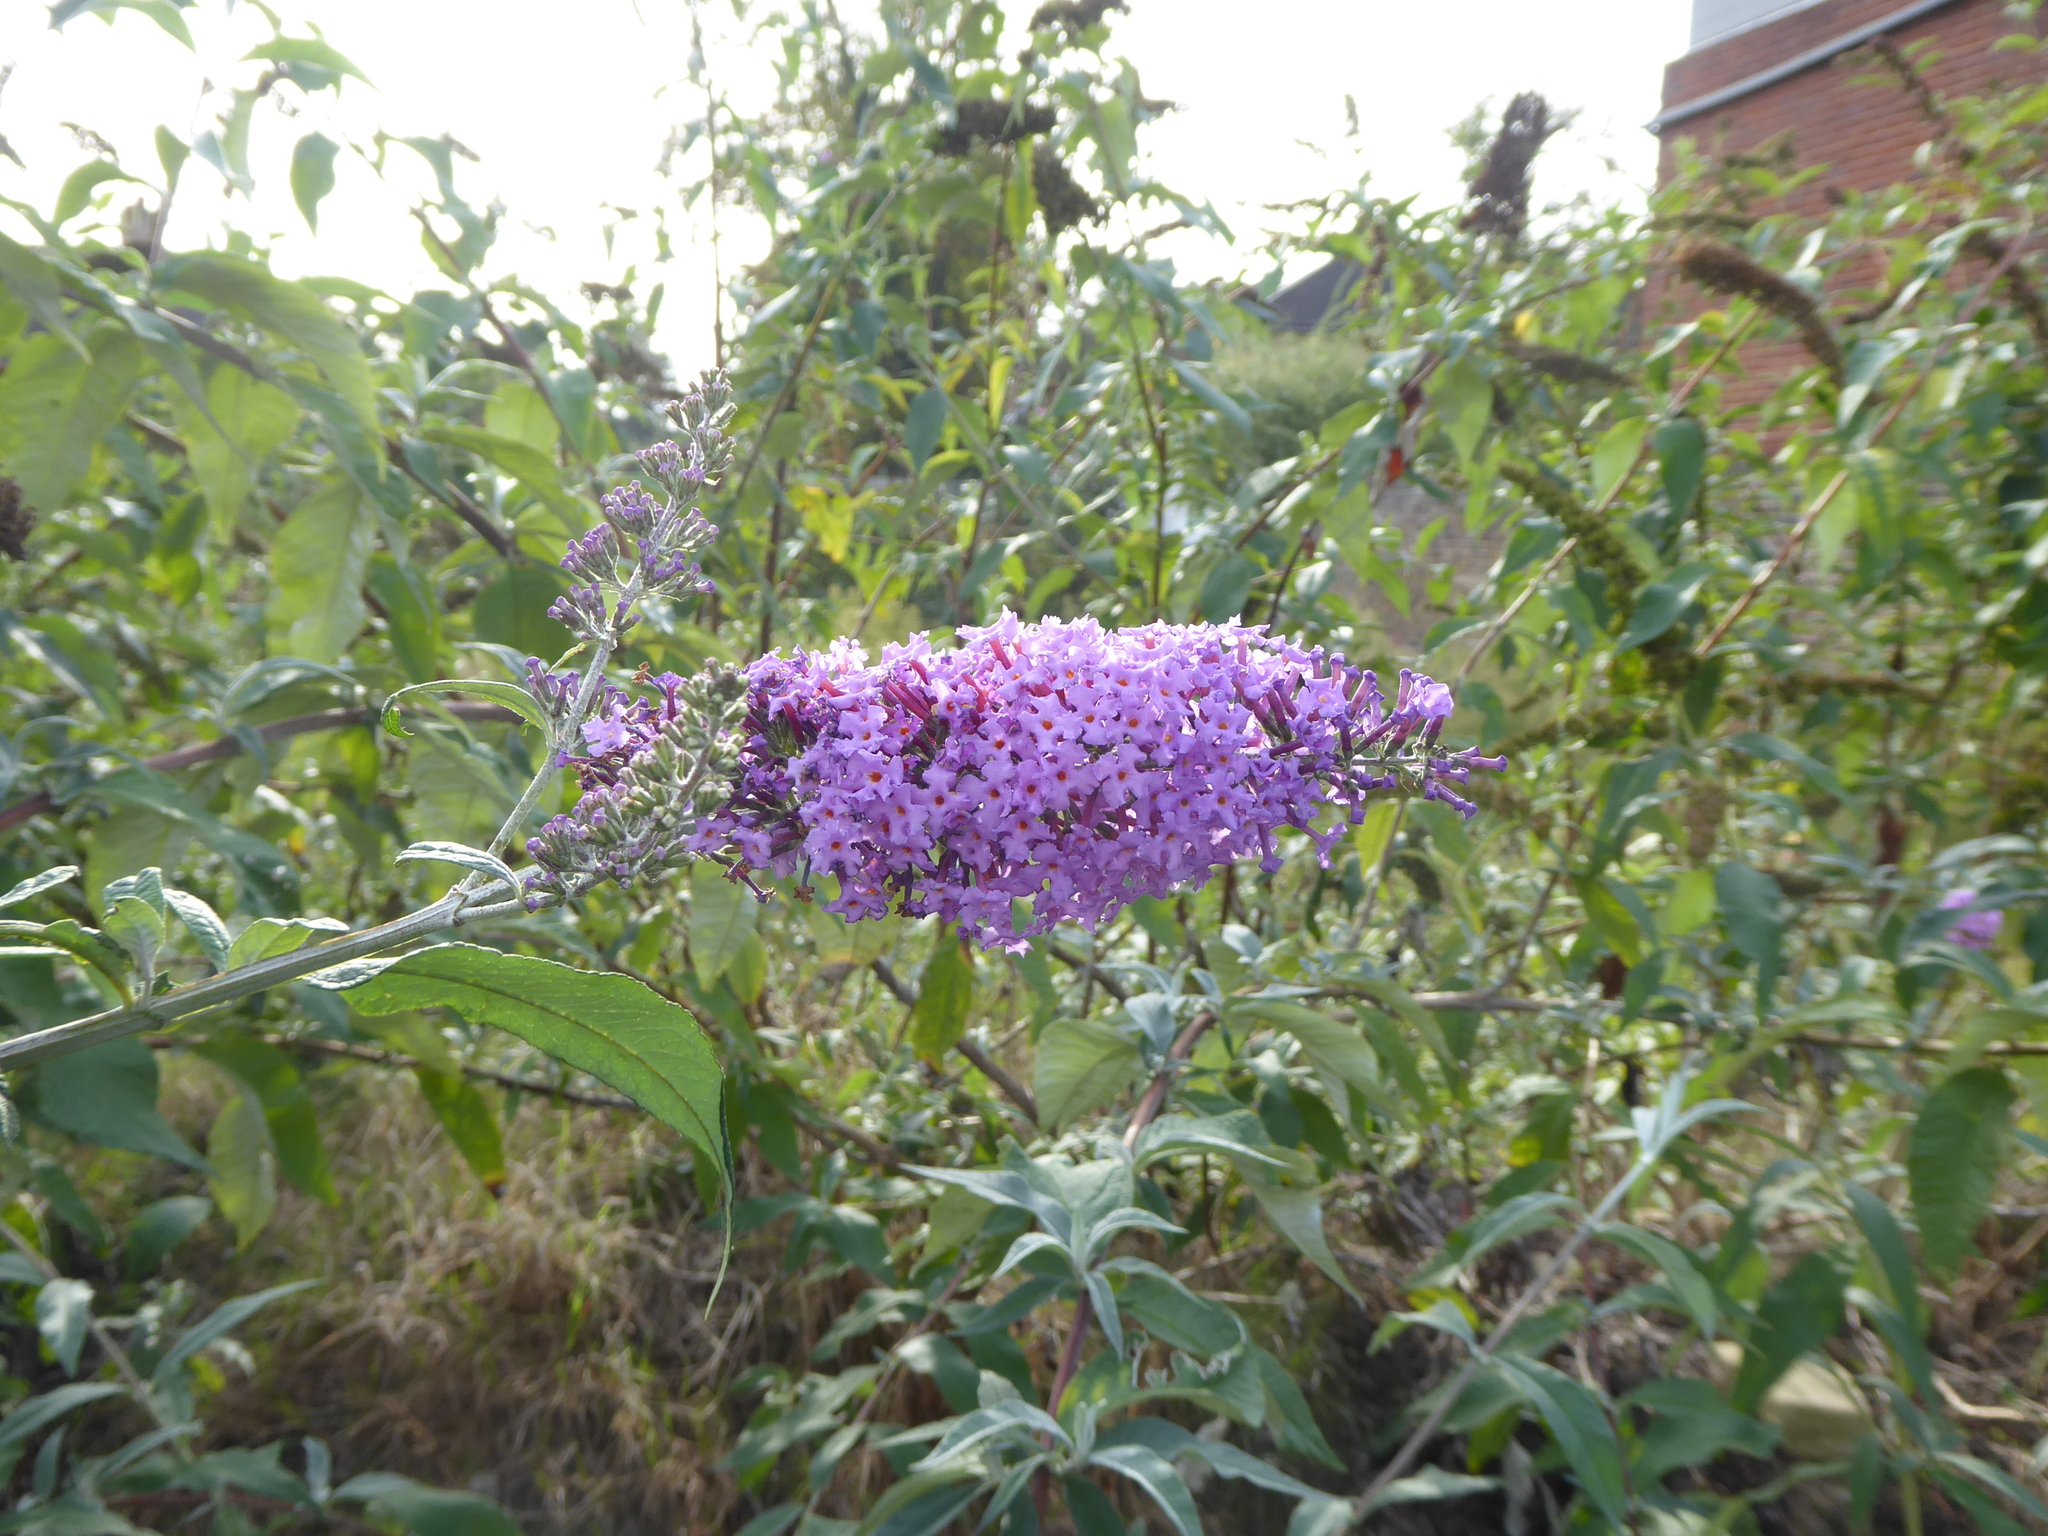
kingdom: Plantae
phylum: Tracheophyta
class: Magnoliopsida
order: Lamiales
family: Scrophulariaceae
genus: Buddleja
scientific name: Buddleja davidii
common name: Butterfly-bush
